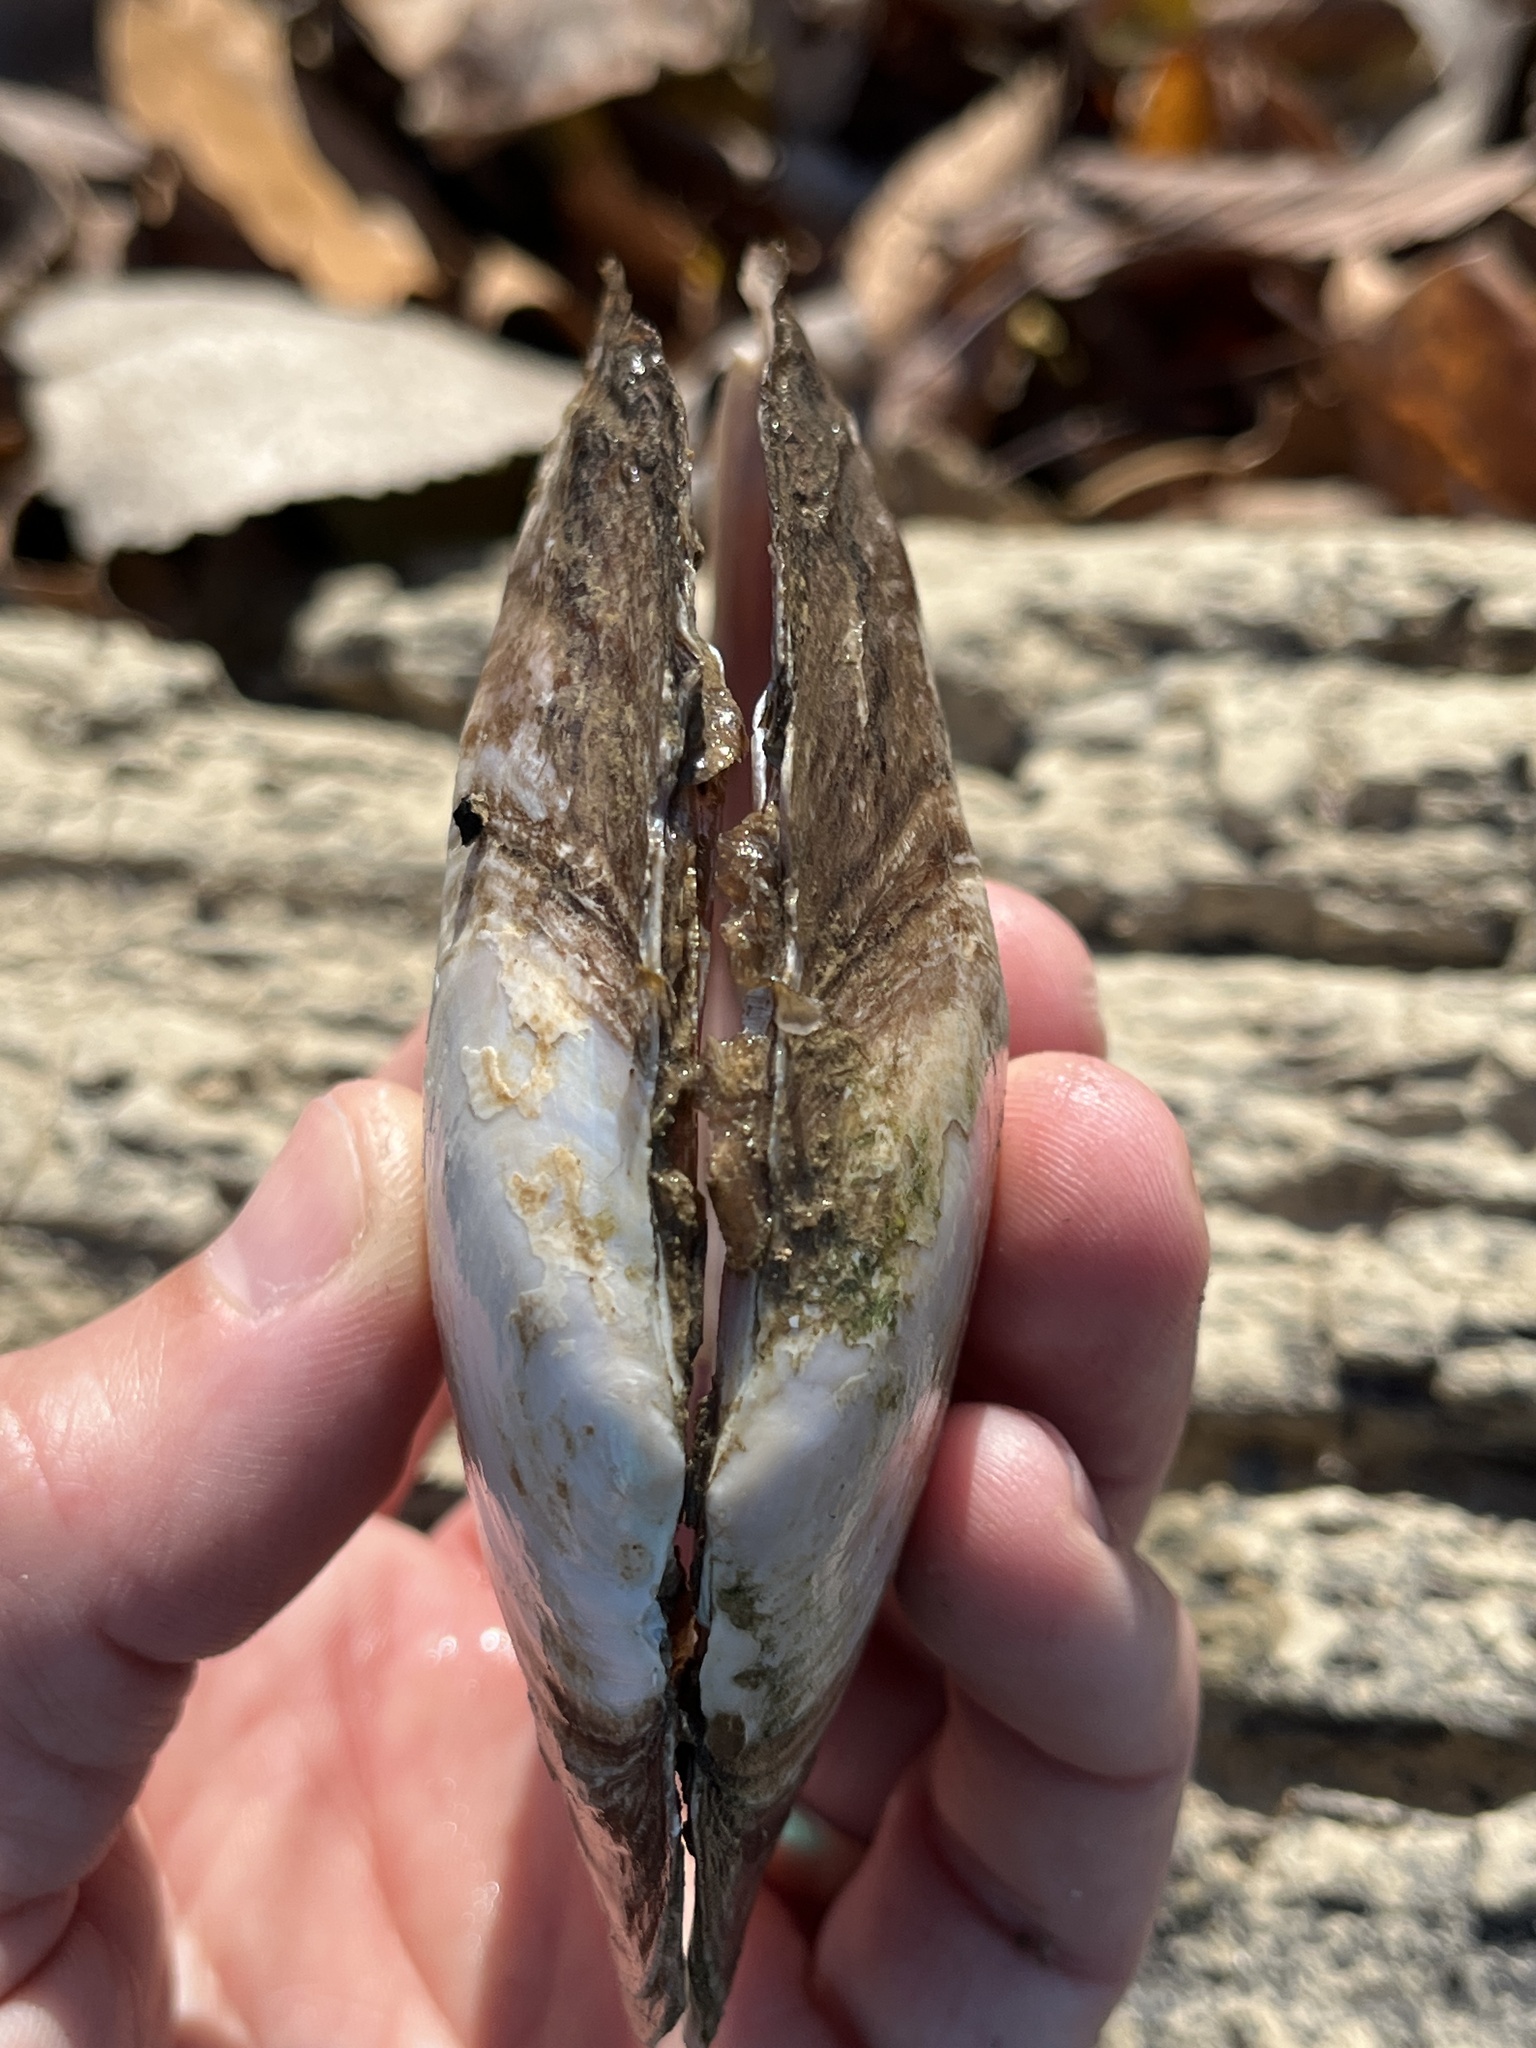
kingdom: Animalia
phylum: Mollusca
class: Bivalvia
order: Unionida
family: Unionidae
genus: Potamilus
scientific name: Potamilus ohiensis
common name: Pink papershell
